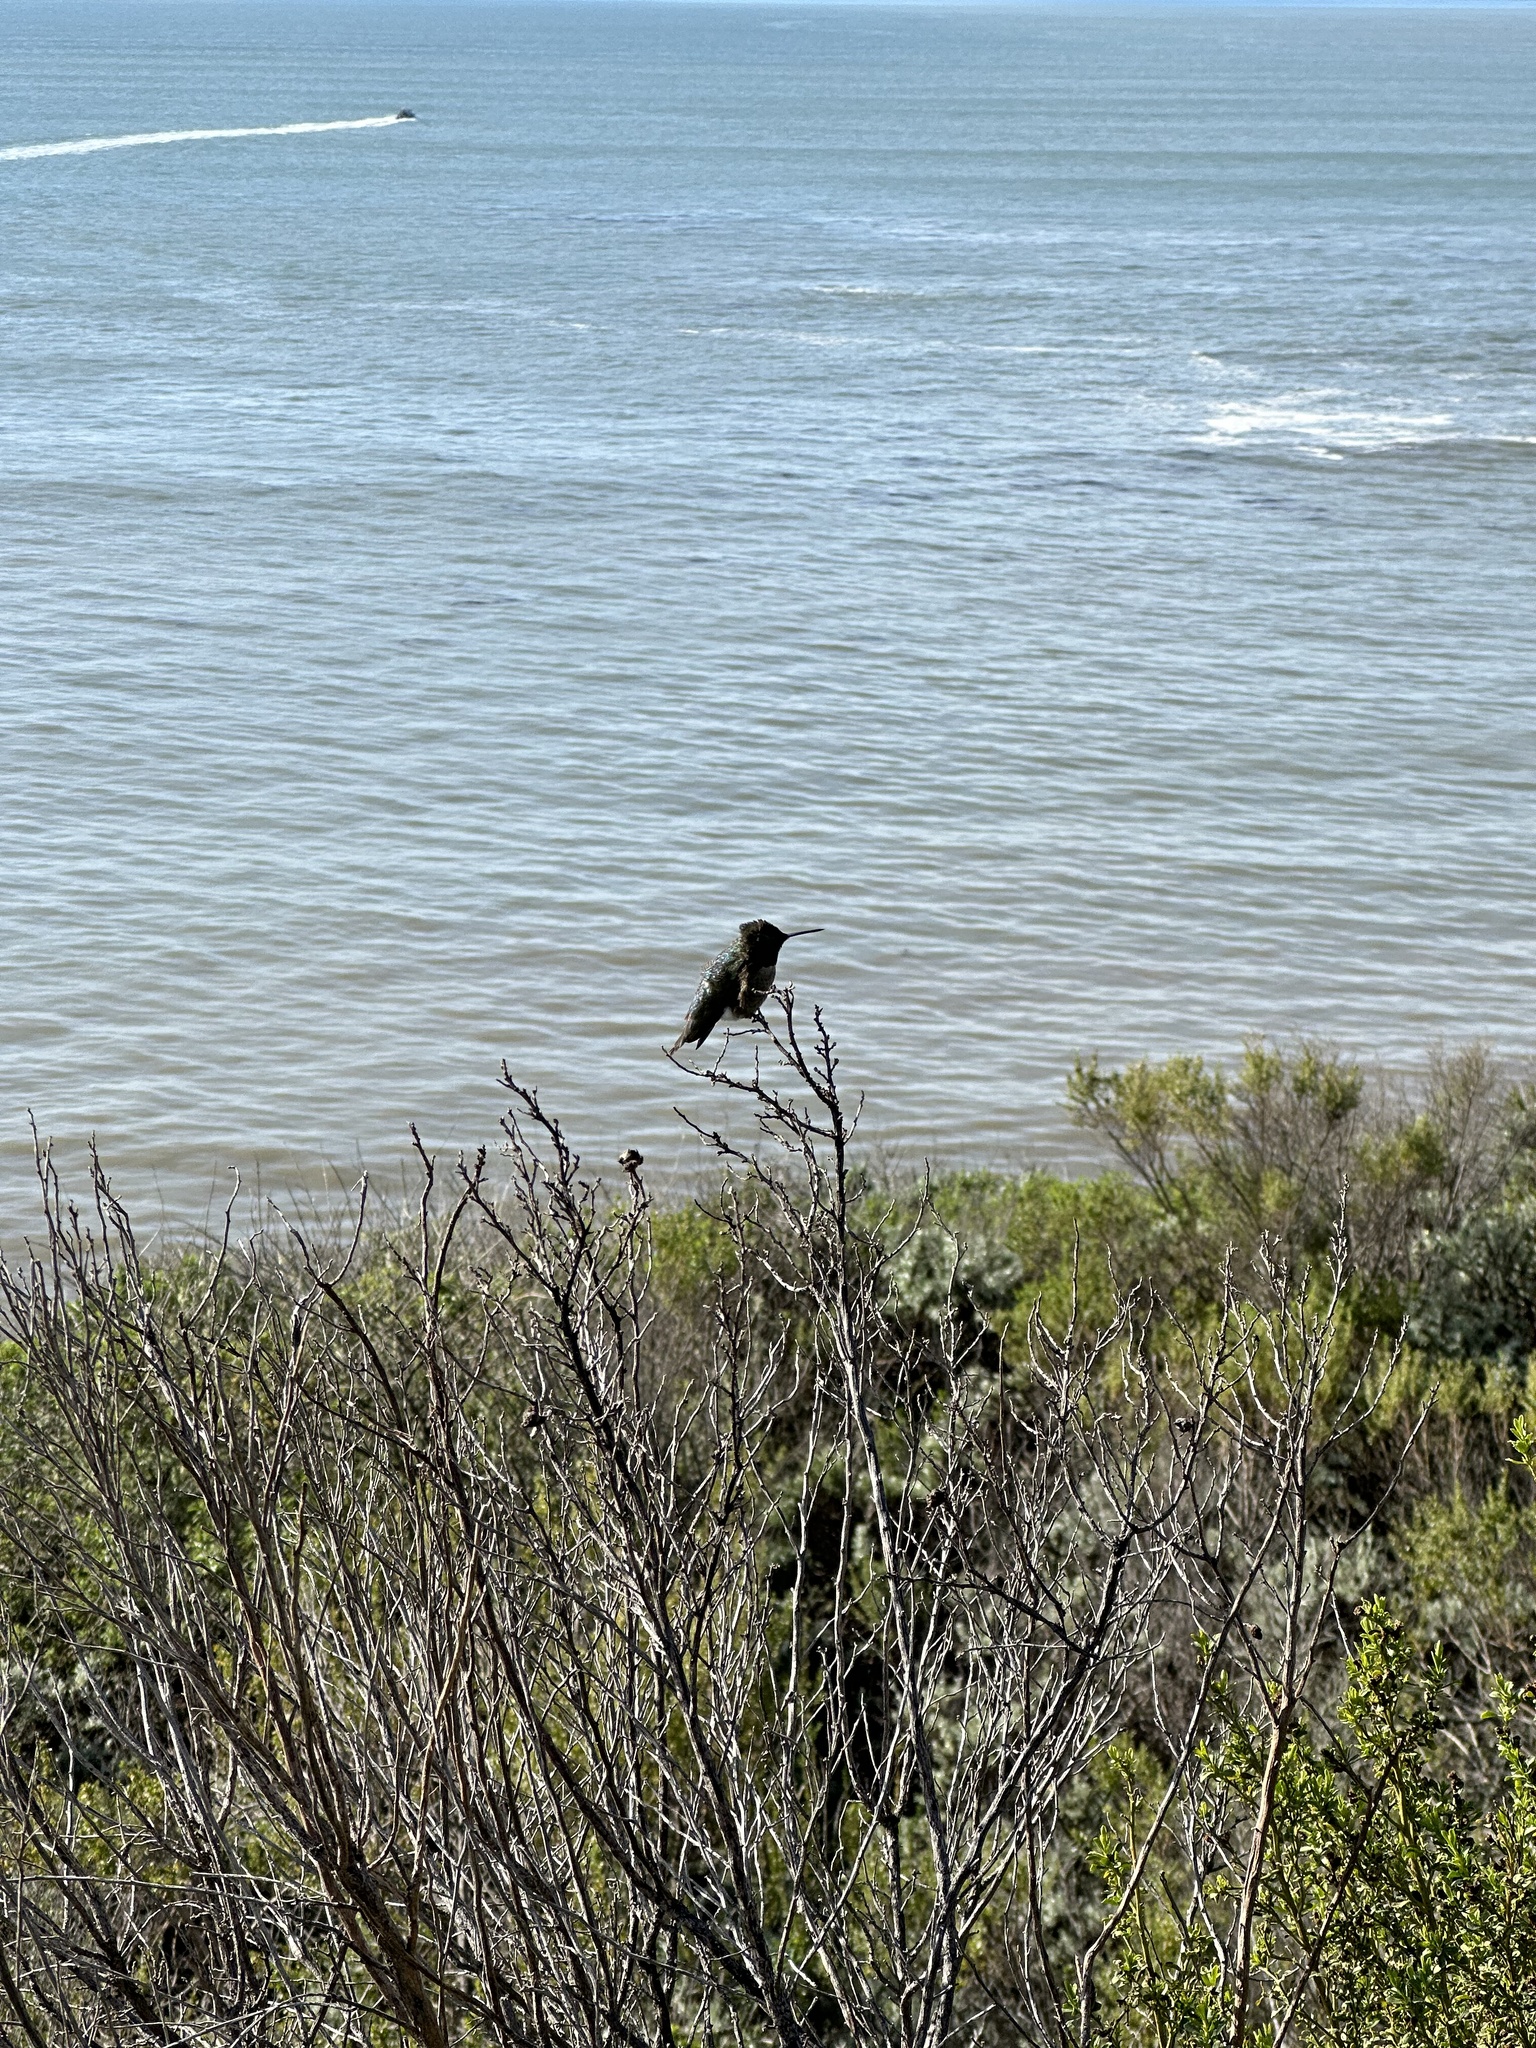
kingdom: Animalia
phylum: Chordata
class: Aves
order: Apodiformes
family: Trochilidae
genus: Calypte
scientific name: Calypte anna
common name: Anna's hummingbird
